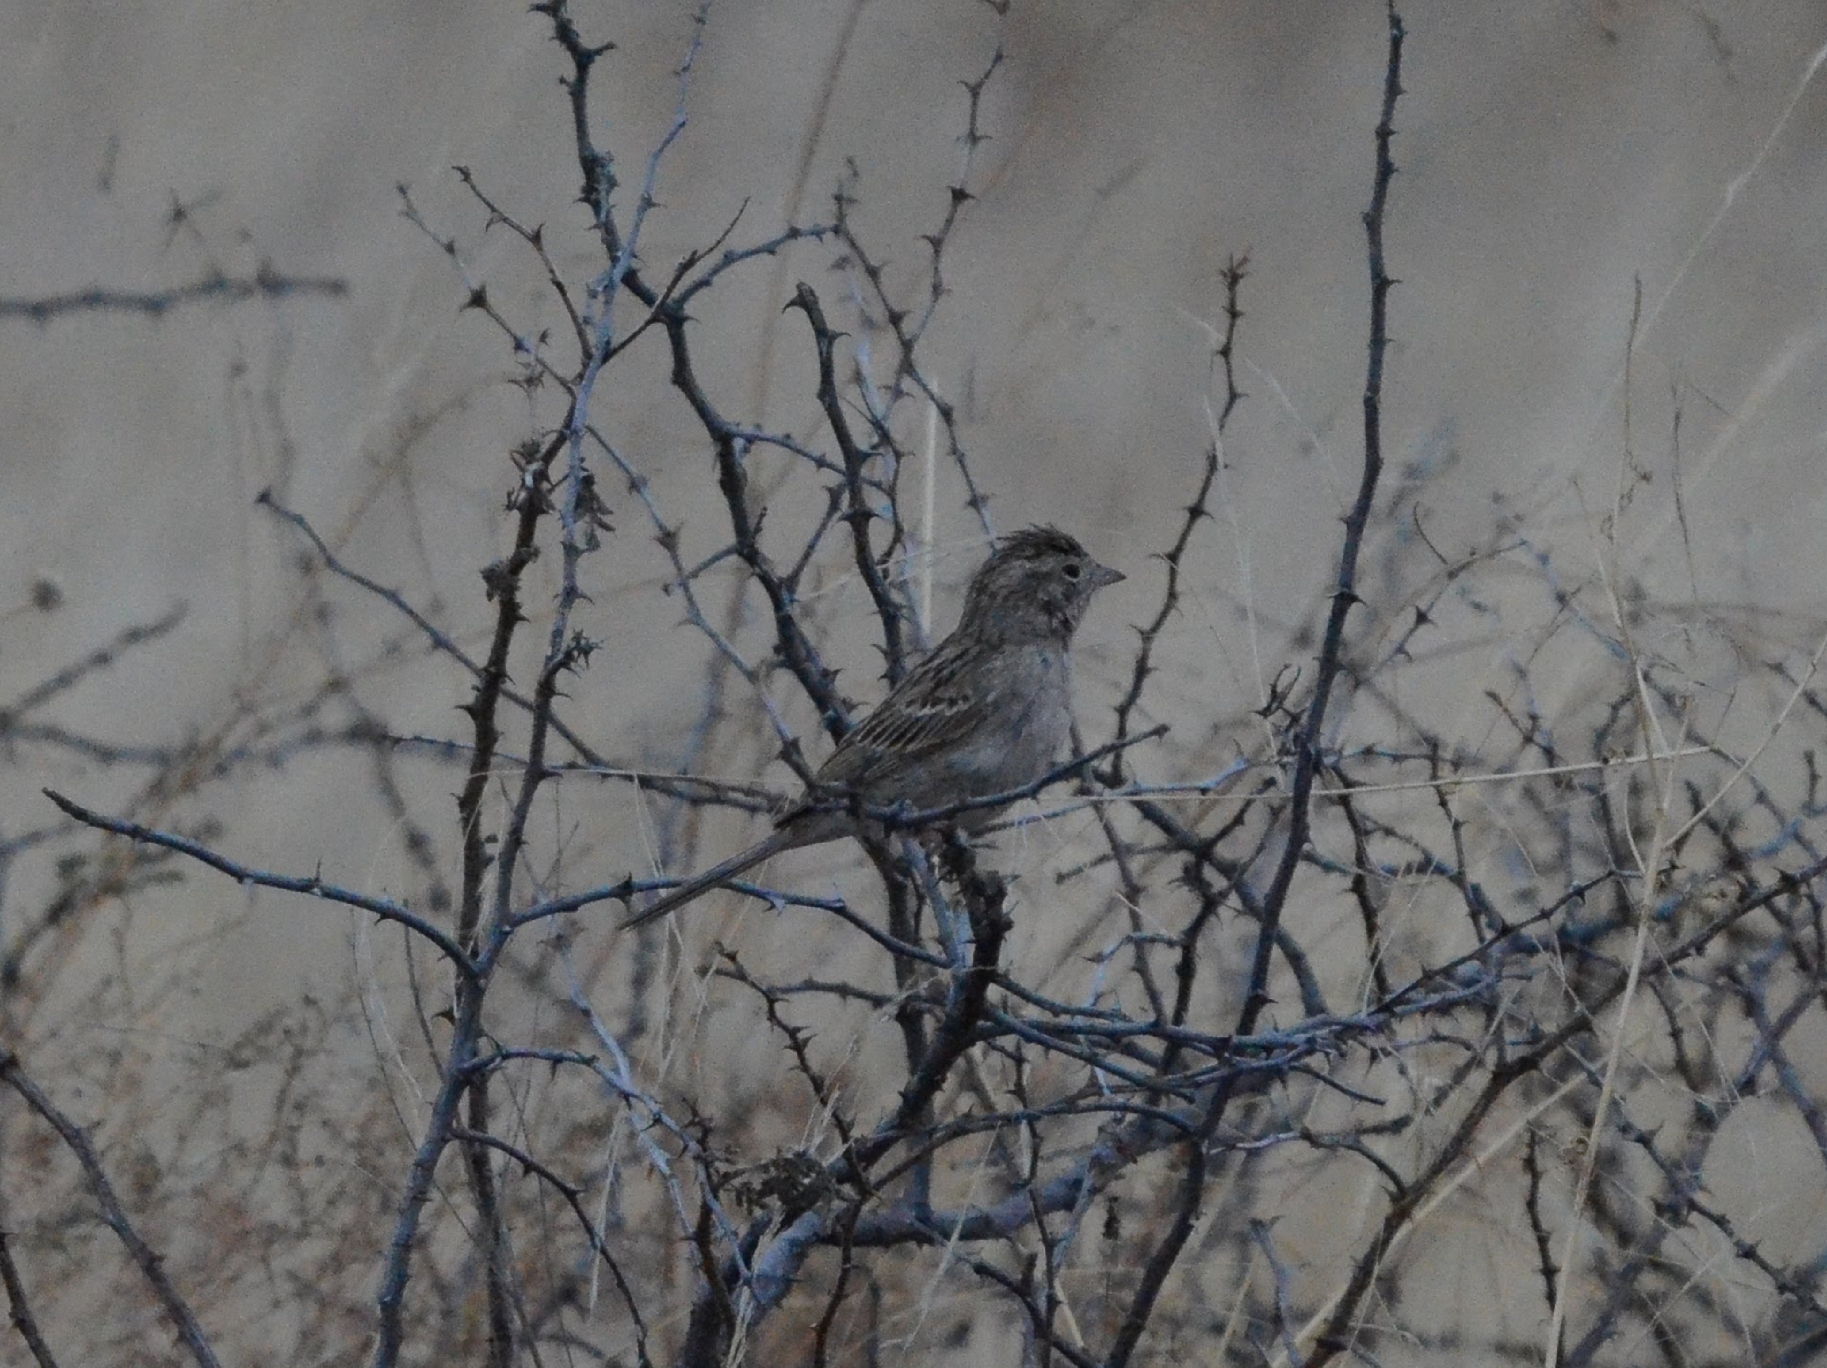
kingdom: Animalia
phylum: Chordata
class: Aves
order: Passeriformes
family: Passerellidae
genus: Spizella
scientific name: Spizella breweri
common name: Brewer's sparrow
